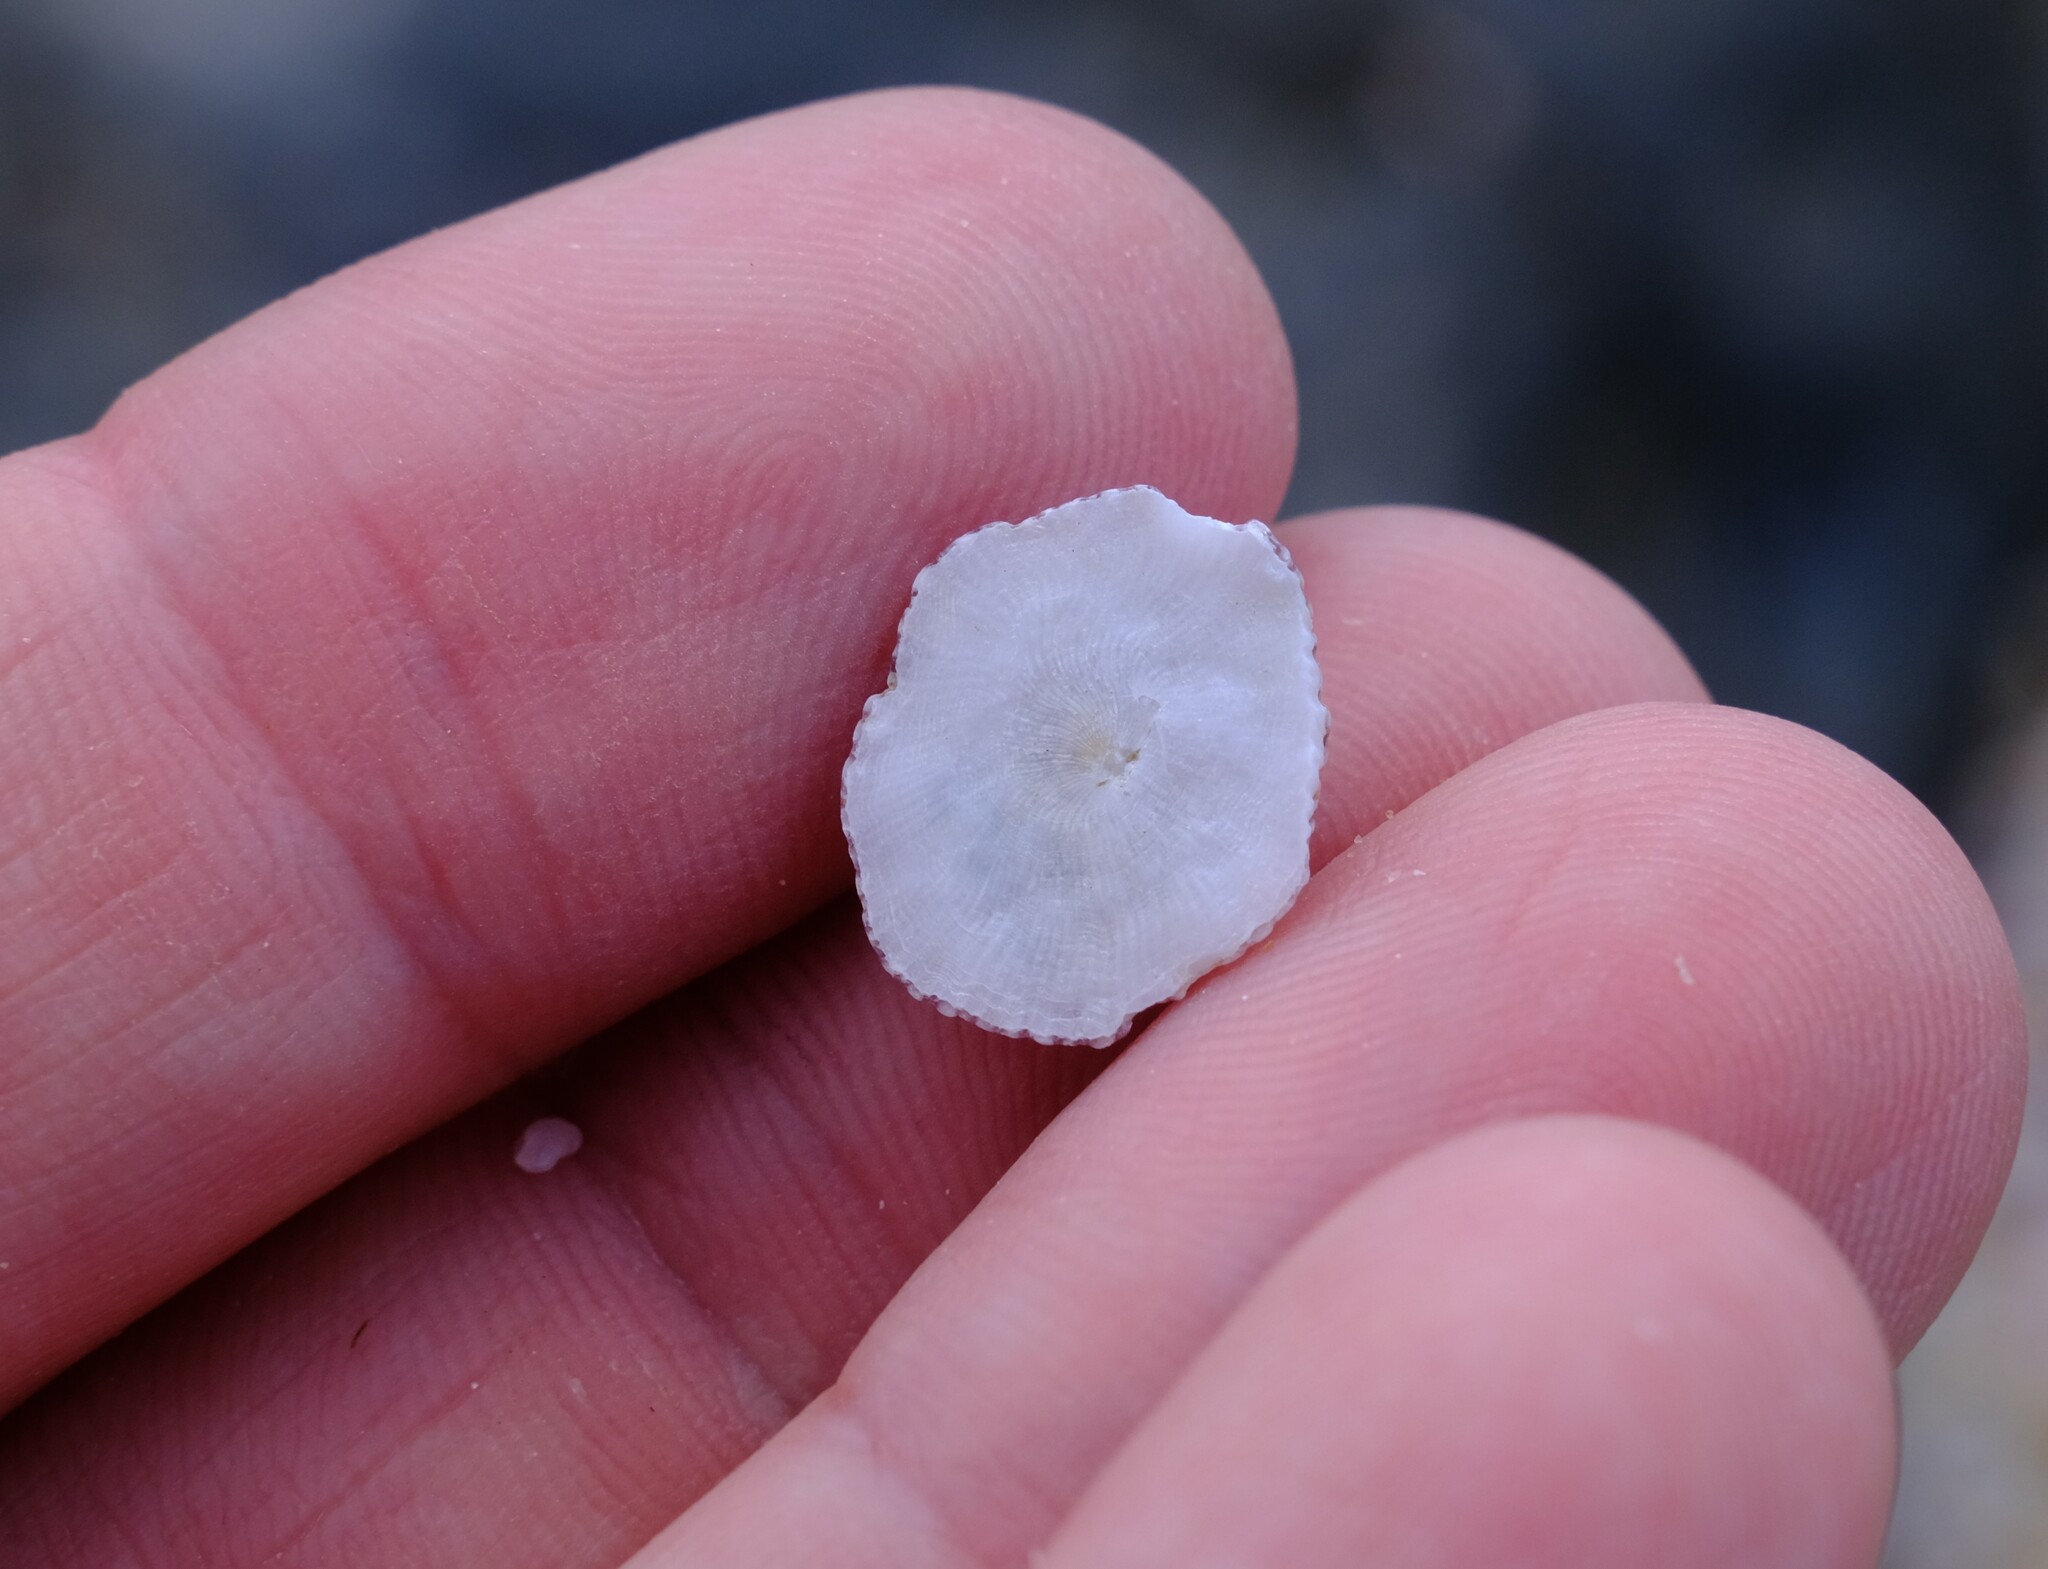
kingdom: Animalia
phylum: Arthropoda
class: Maxillopoda
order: Sessilia
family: Balanidae
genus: Balanus
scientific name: Balanus trigonus
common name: Triangle barnacle
